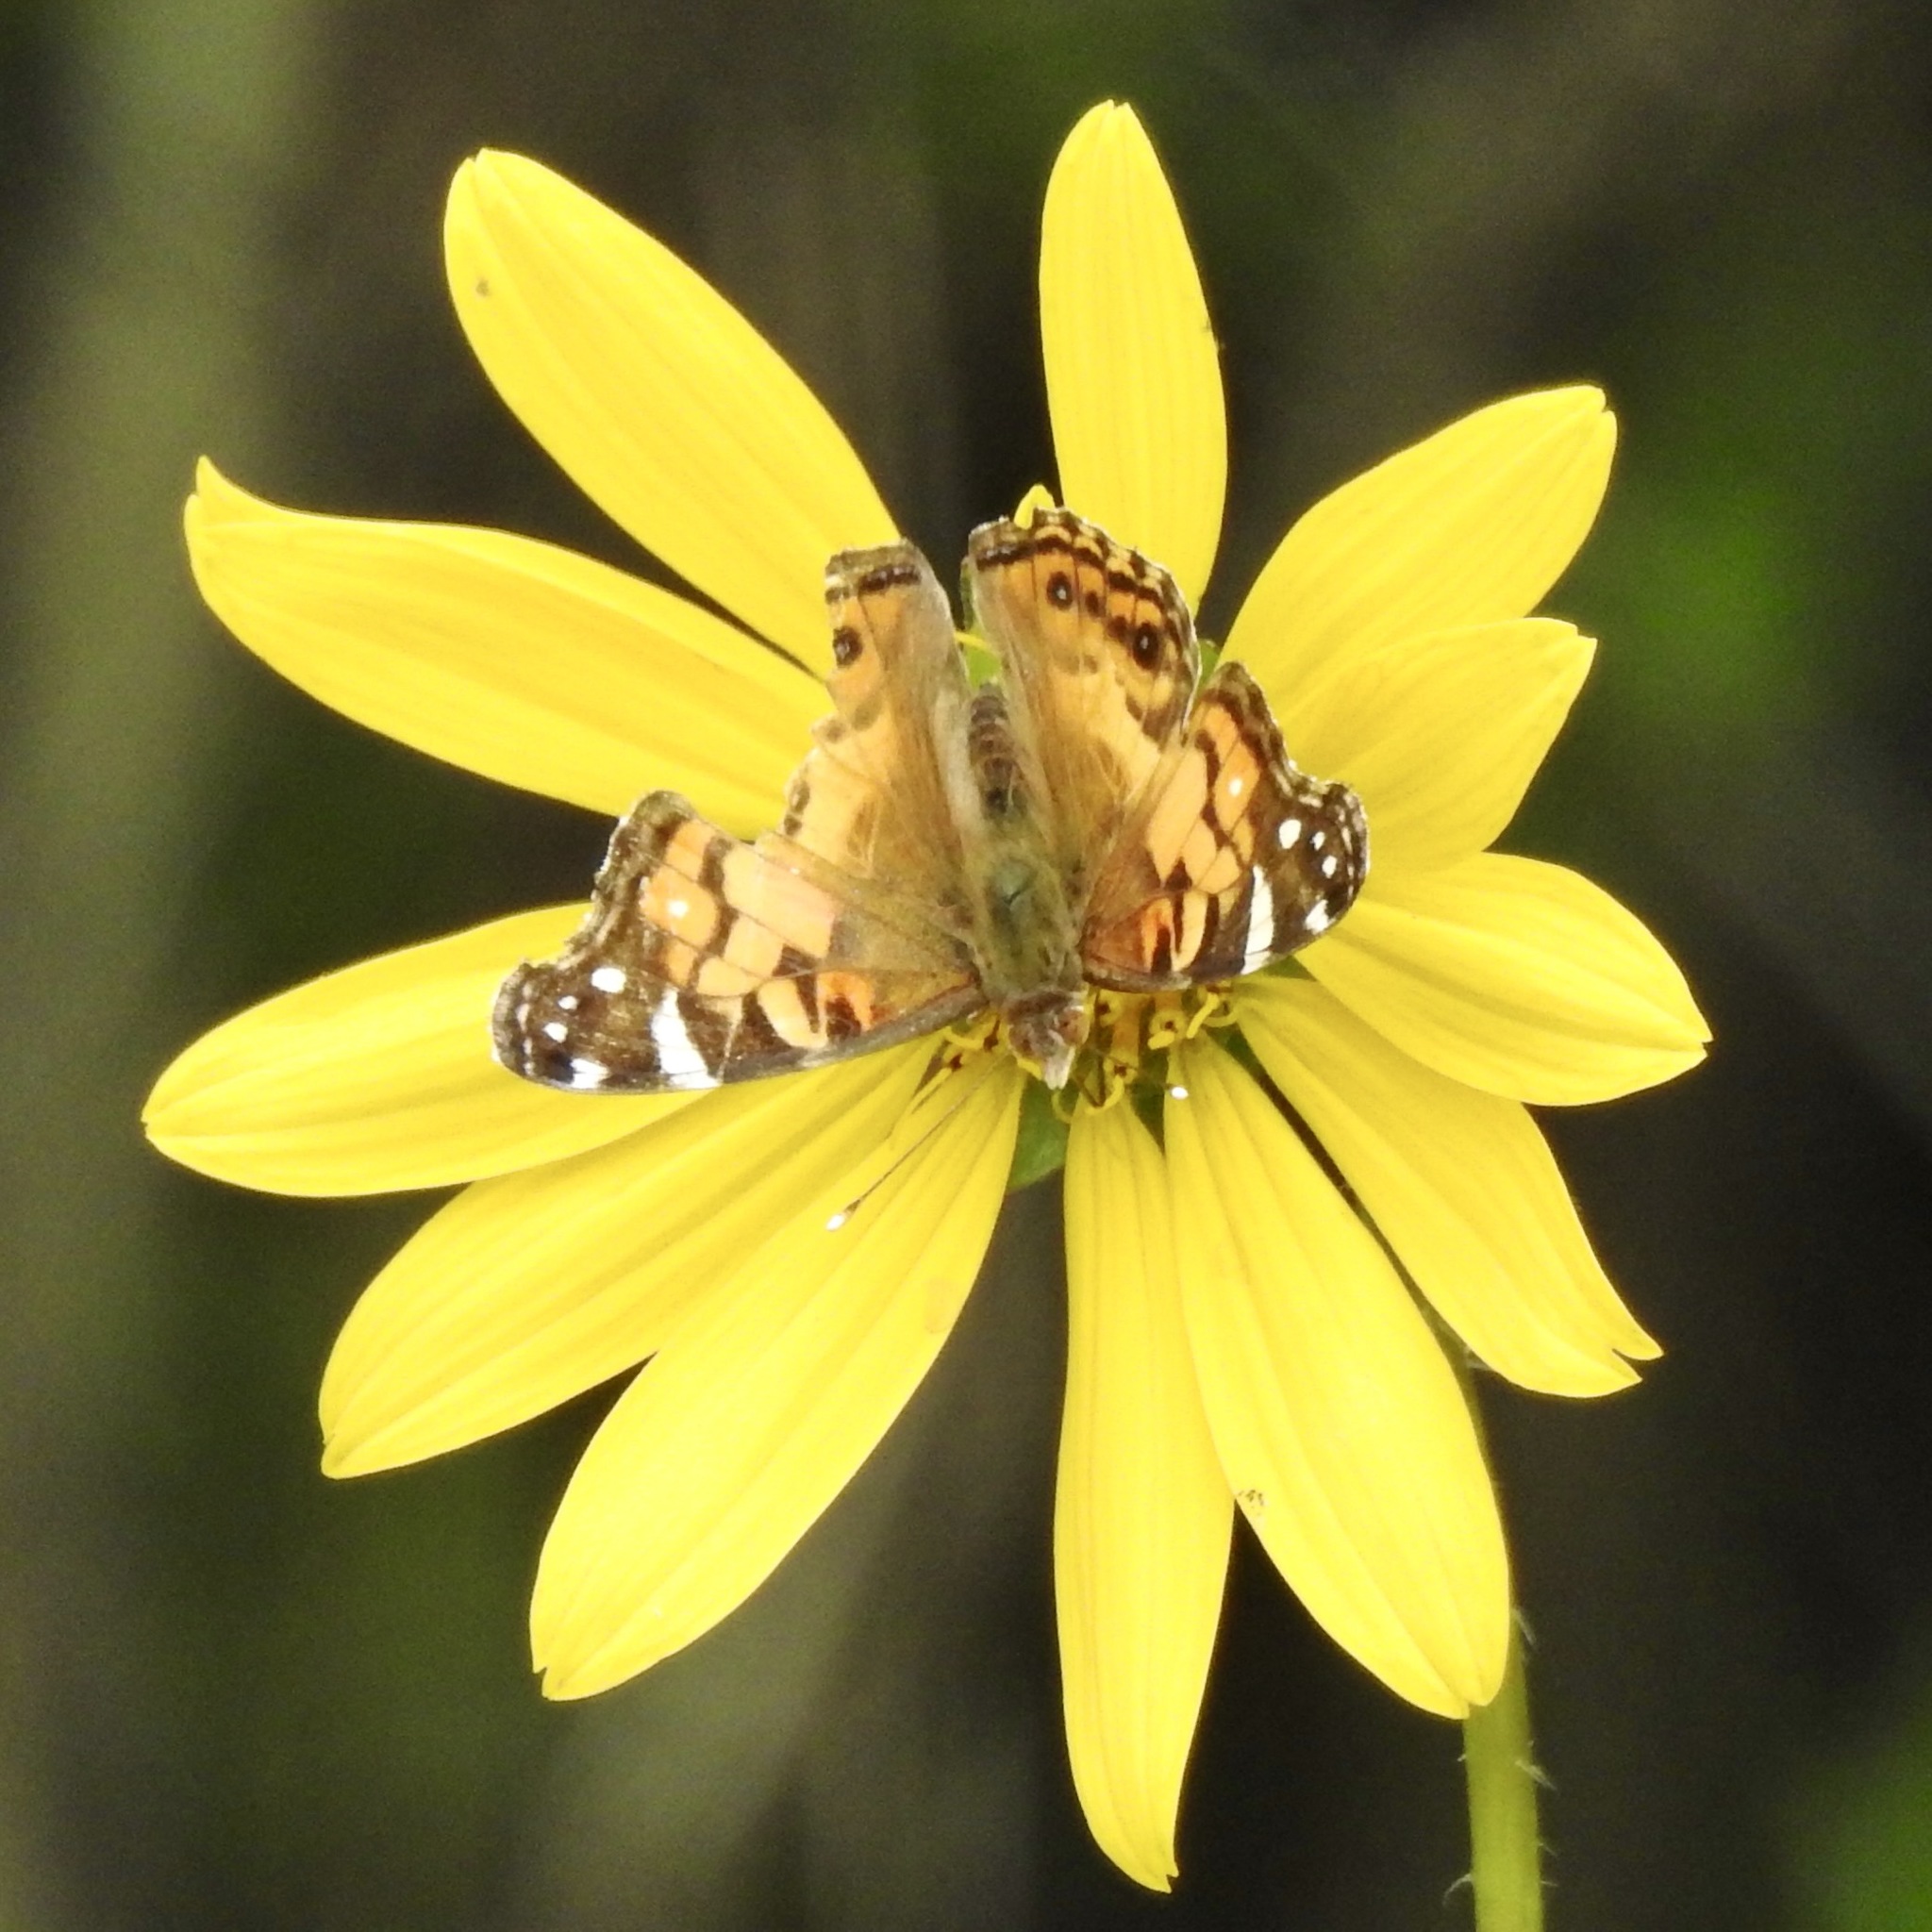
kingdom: Animalia
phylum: Arthropoda
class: Insecta
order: Lepidoptera
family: Nymphalidae
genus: Vanessa
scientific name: Vanessa virginiensis
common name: American lady
